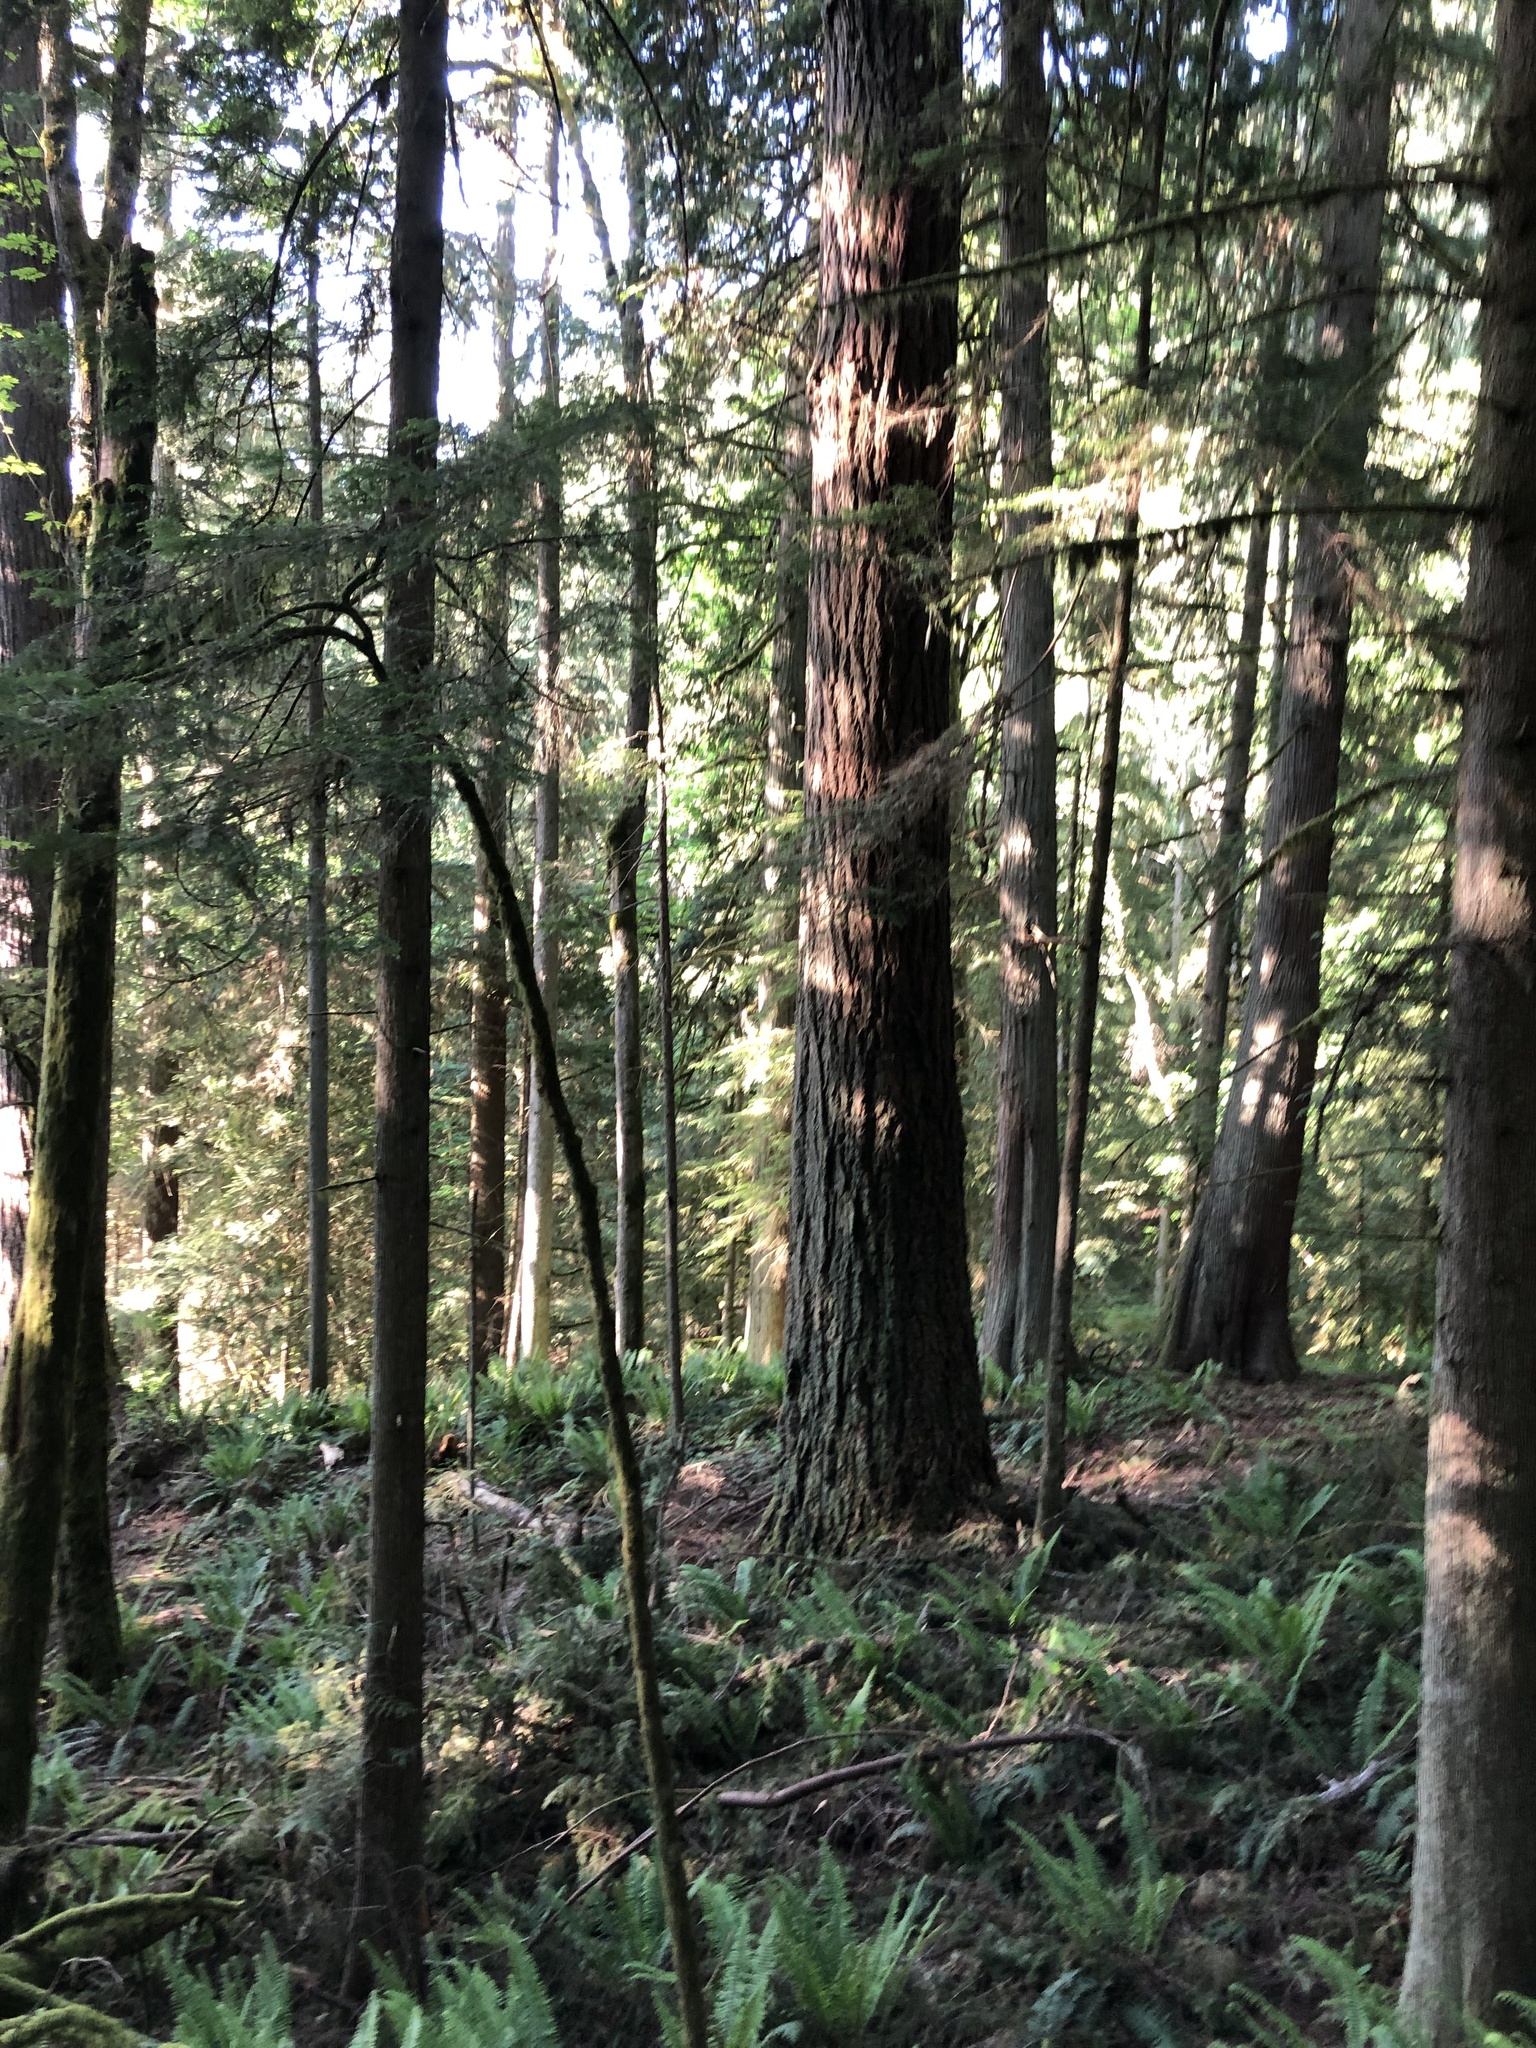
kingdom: Plantae
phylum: Tracheophyta
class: Pinopsida
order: Pinales
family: Pinaceae
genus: Pseudotsuga
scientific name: Pseudotsuga menziesii
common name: Douglas fir
